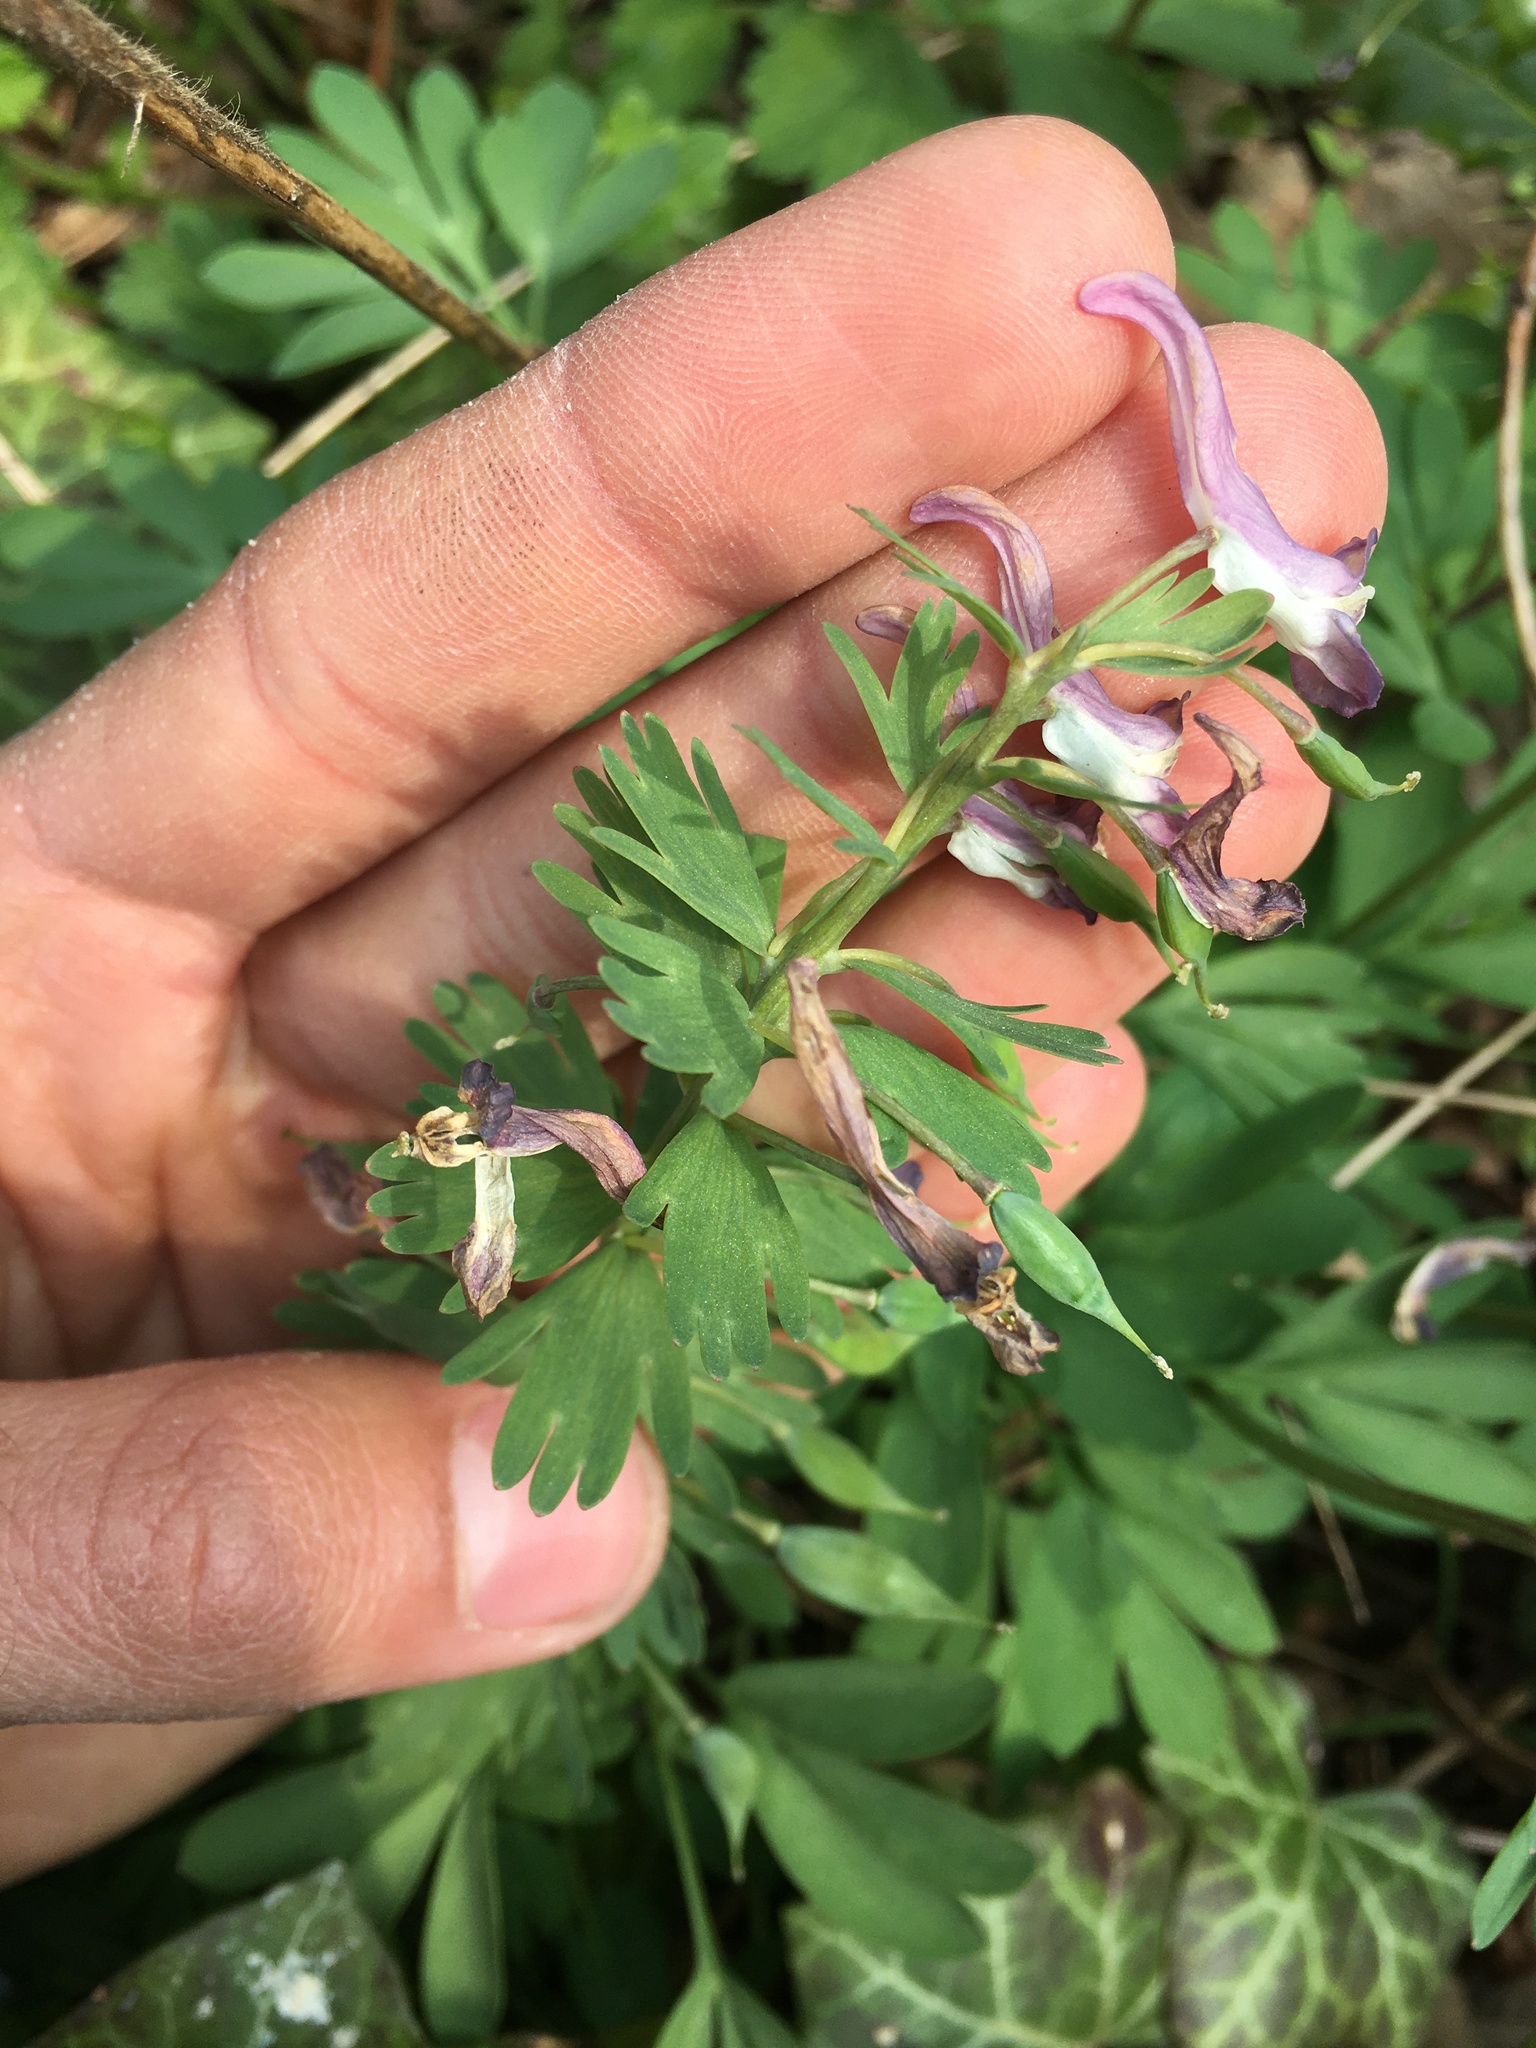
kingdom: Plantae
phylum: Tracheophyta
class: Magnoliopsida
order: Ranunculales
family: Papaveraceae
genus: Corydalis
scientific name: Corydalis solida
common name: Bird-in-a-bush
